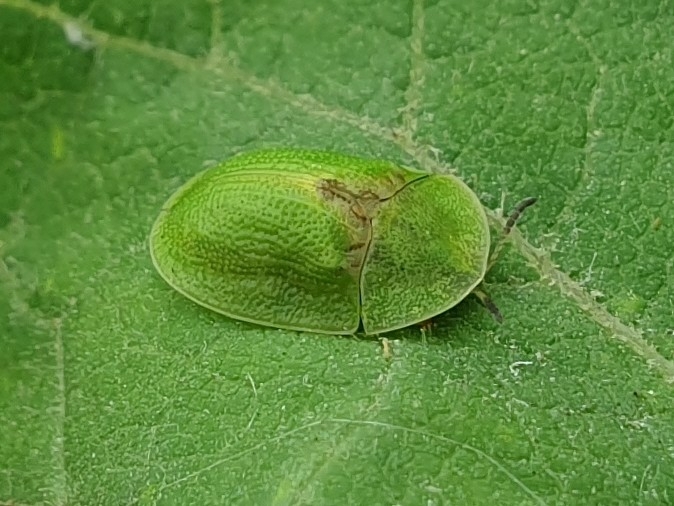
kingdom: Animalia
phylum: Arthropoda
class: Insecta
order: Coleoptera
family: Chrysomelidae
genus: Cassida
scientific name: Cassida rubiginosa
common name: Thistle tortoise beetle
